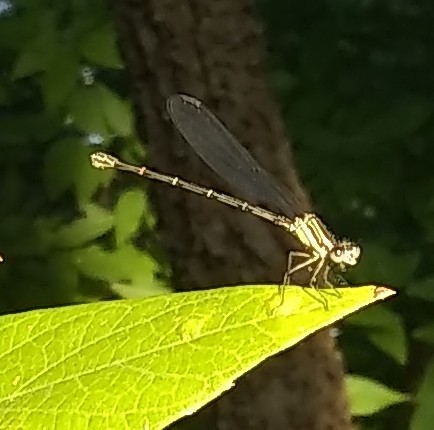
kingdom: Animalia
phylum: Arthropoda
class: Insecta
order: Odonata
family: Coenagrionidae
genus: Argia
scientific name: Argia translata
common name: Dusky dancer
